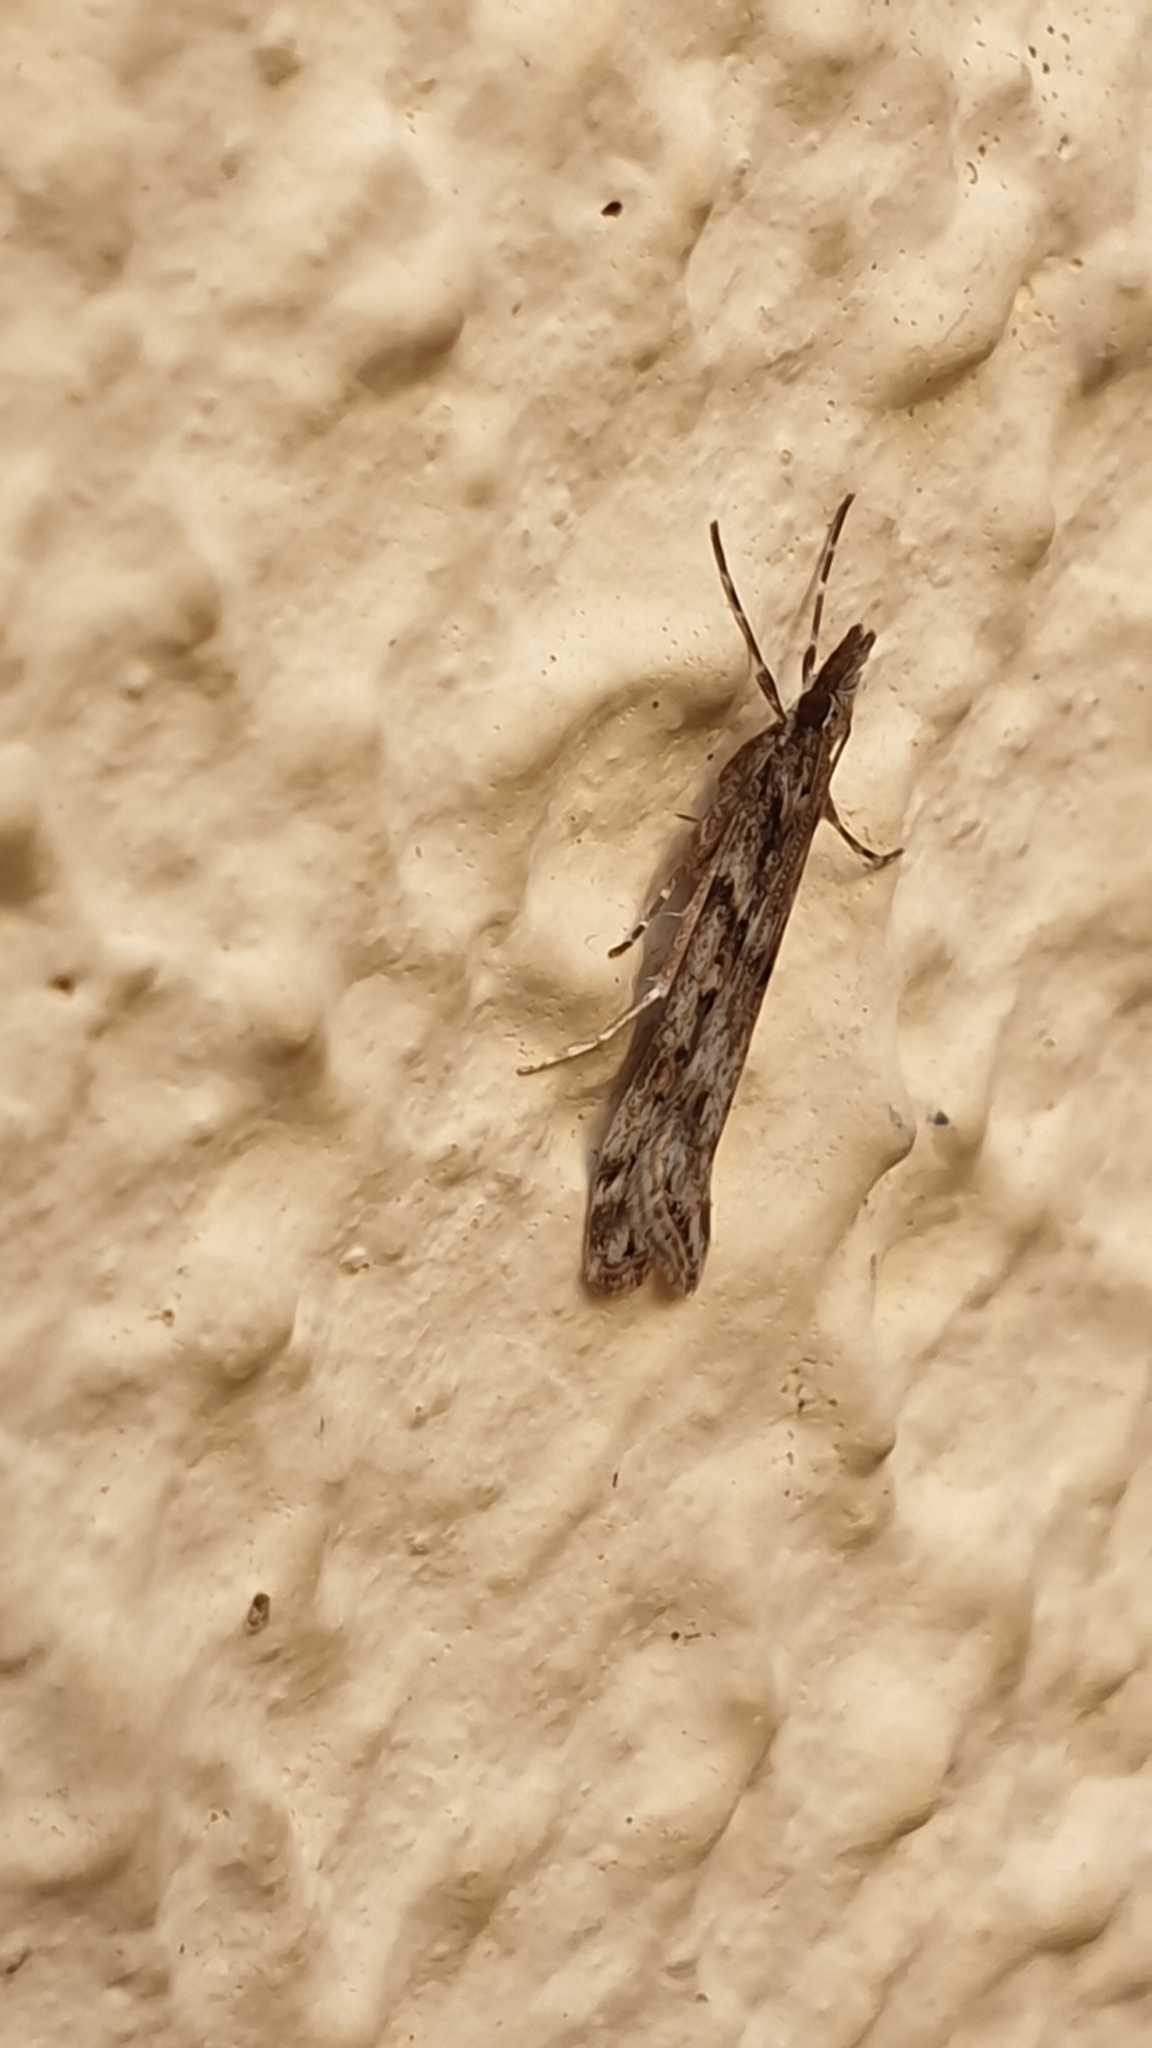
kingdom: Animalia
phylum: Arthropoda
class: Insecta
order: Lepidoptera
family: Crambidae
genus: Eudonia
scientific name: Eudonia angustea
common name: Narrow-winged grey
